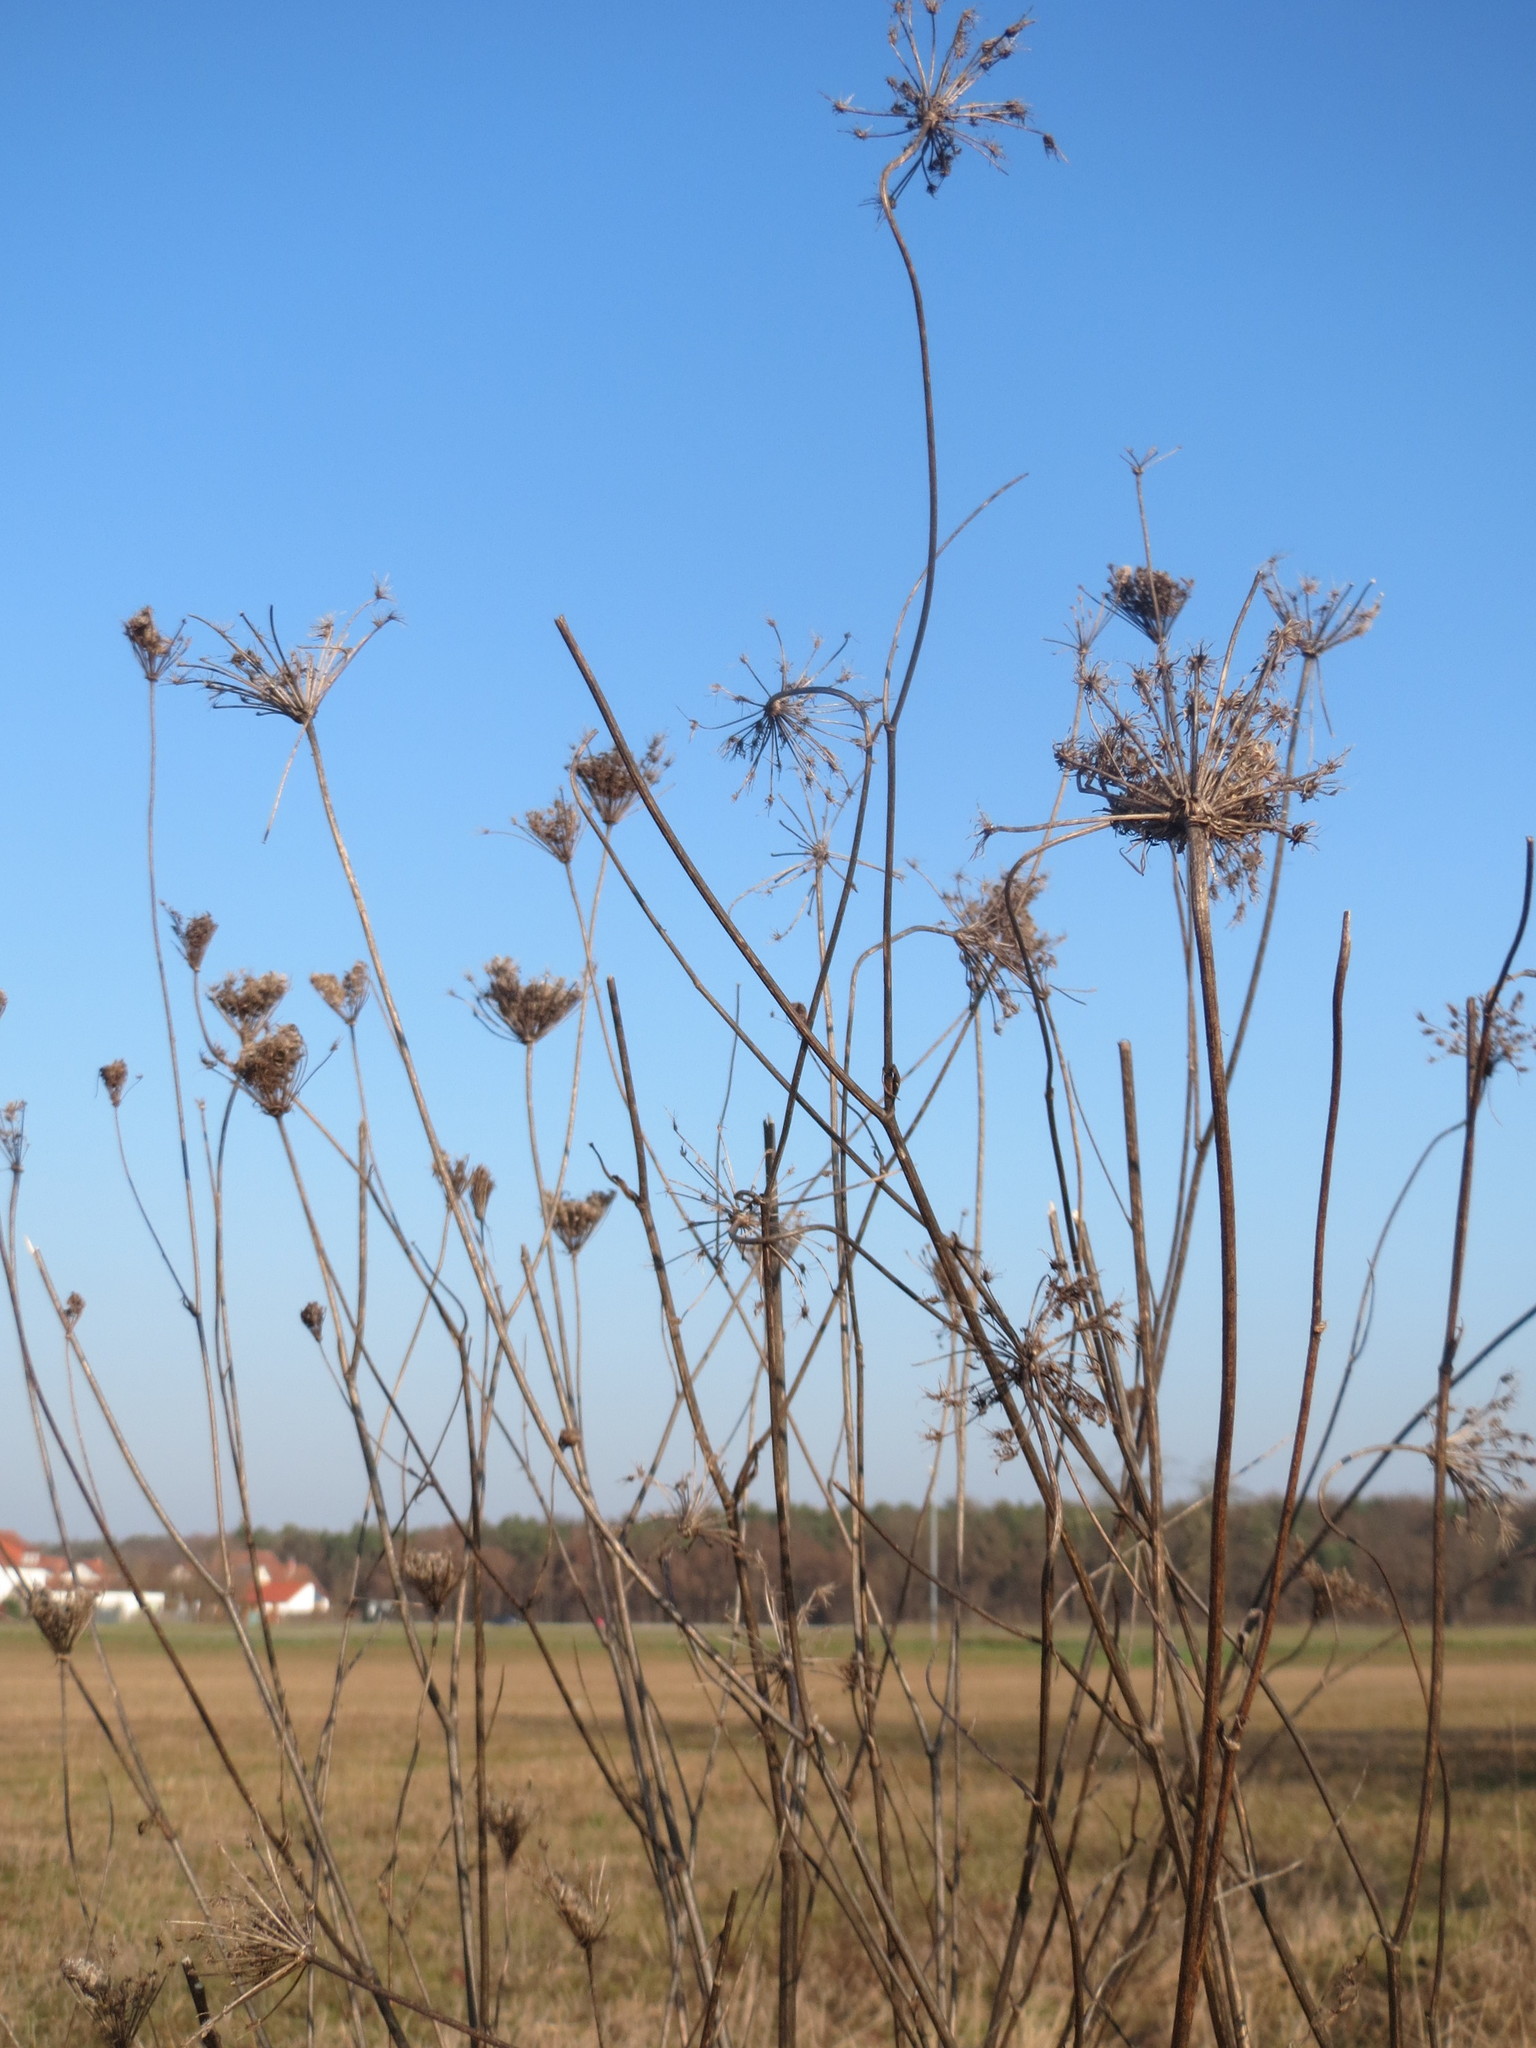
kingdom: Plantae
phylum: Tracheophyta
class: Magnoliopsida
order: Apiales
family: Apiaceae
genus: Daucus
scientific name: Daucus carota
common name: Wild carrot
